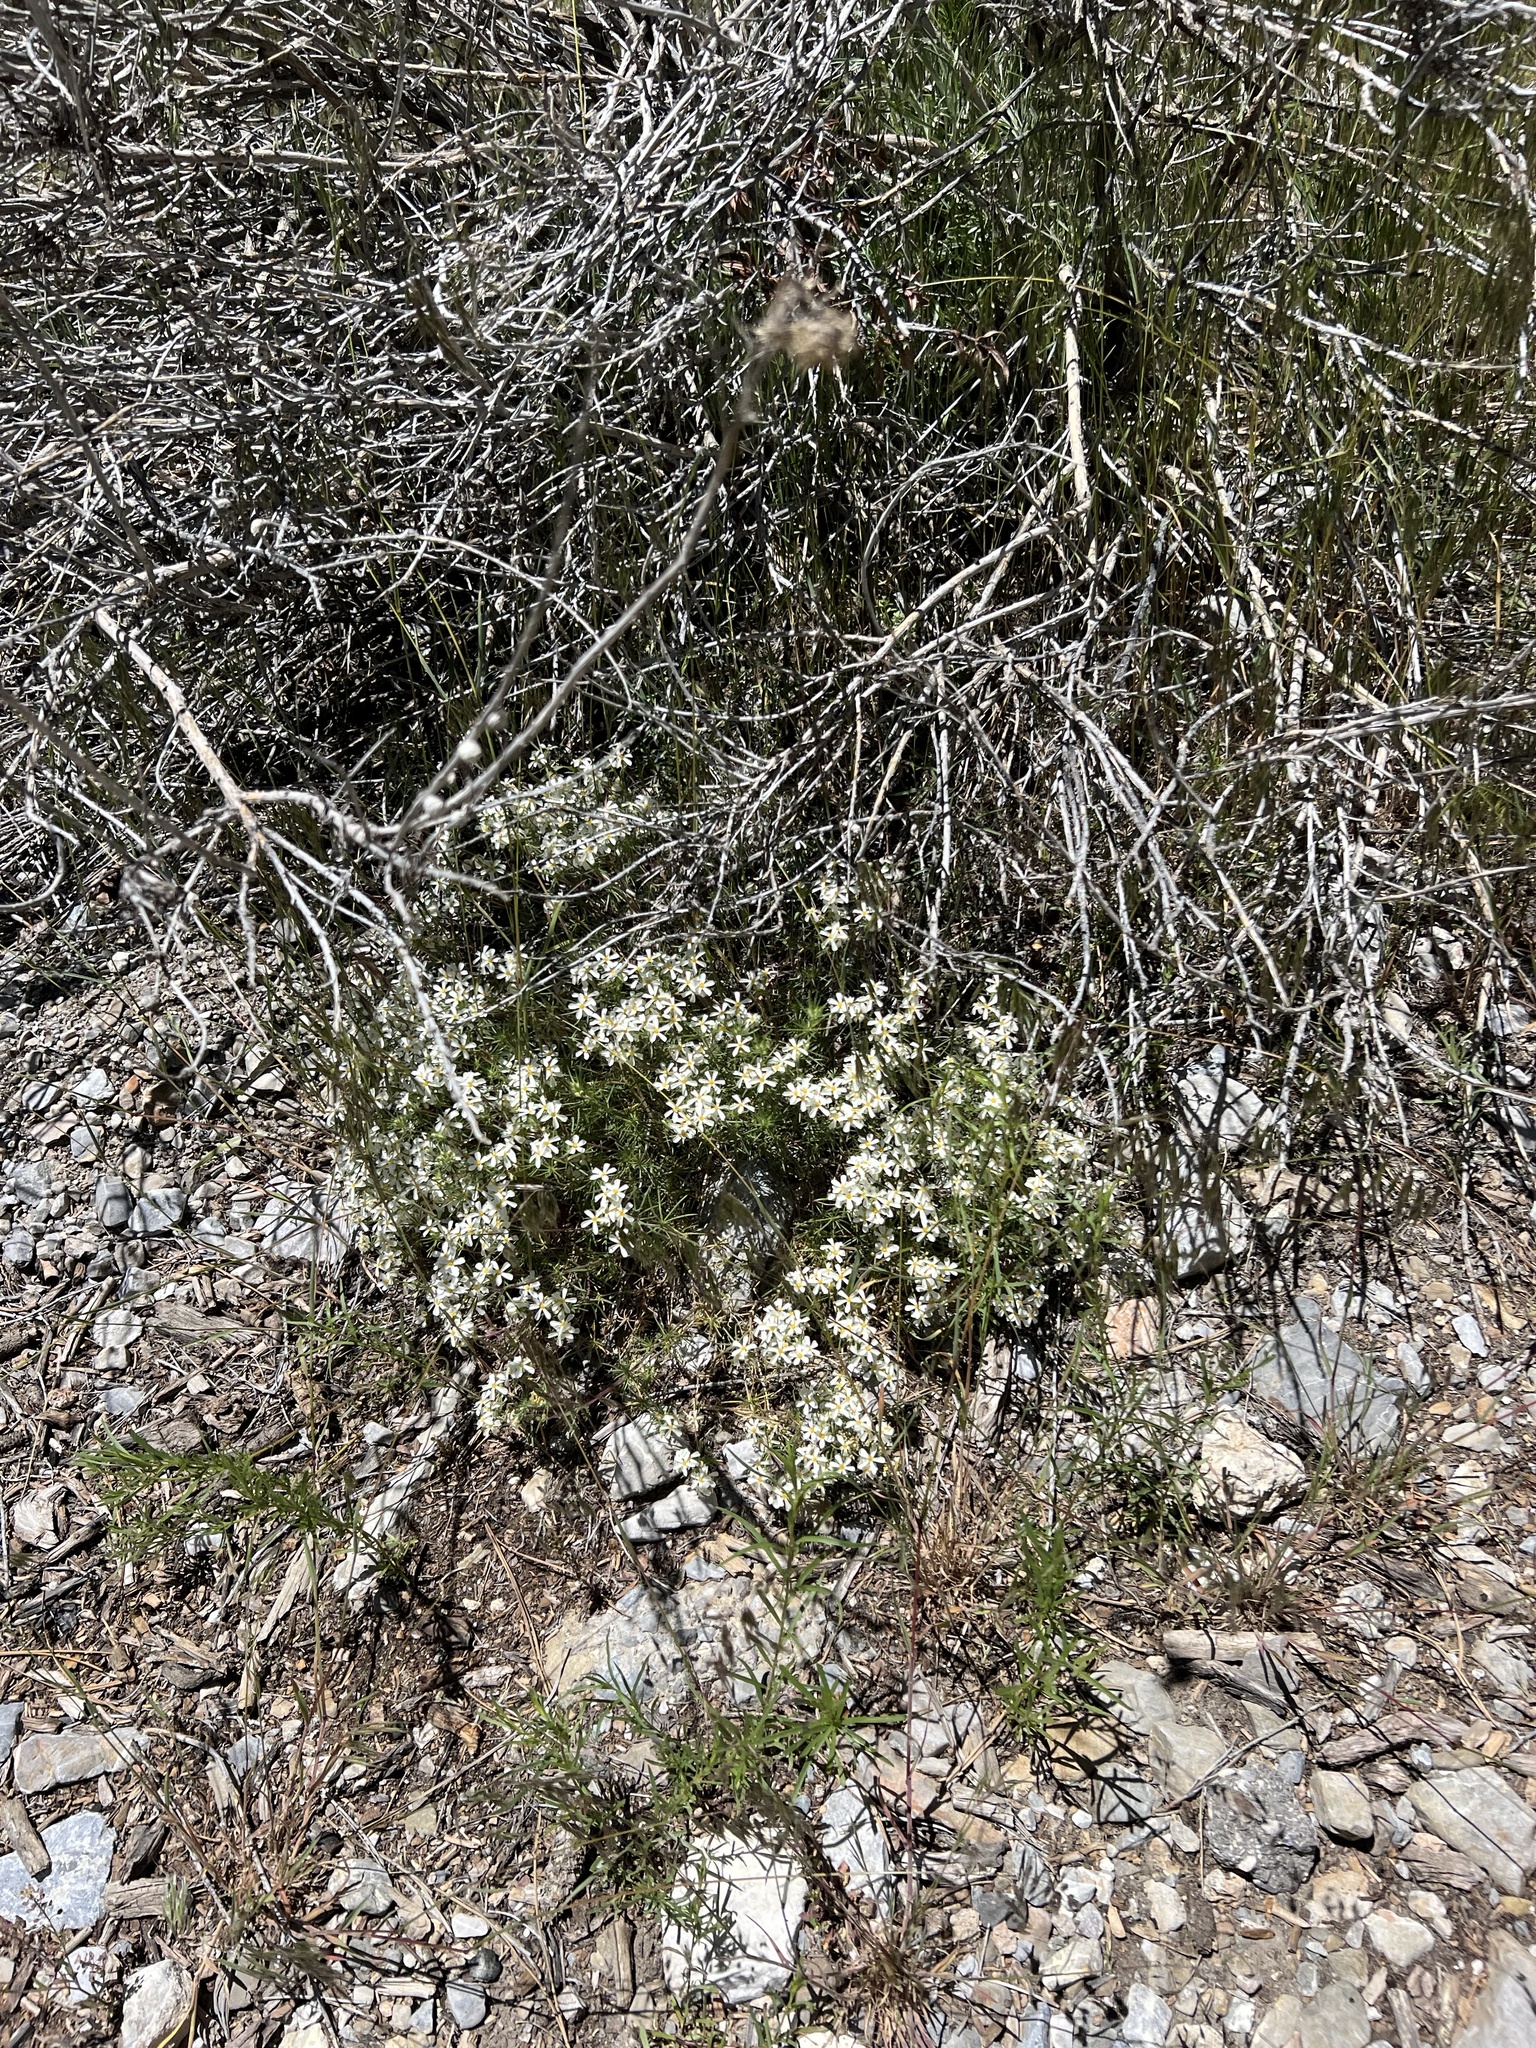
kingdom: Plantae
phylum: Tracheophyta
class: Magnoliopsida
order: Ericales
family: Polemoniaceae
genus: Leptosiphon
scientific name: Leptosiphon nuttallii
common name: Nuttall's linanthus
